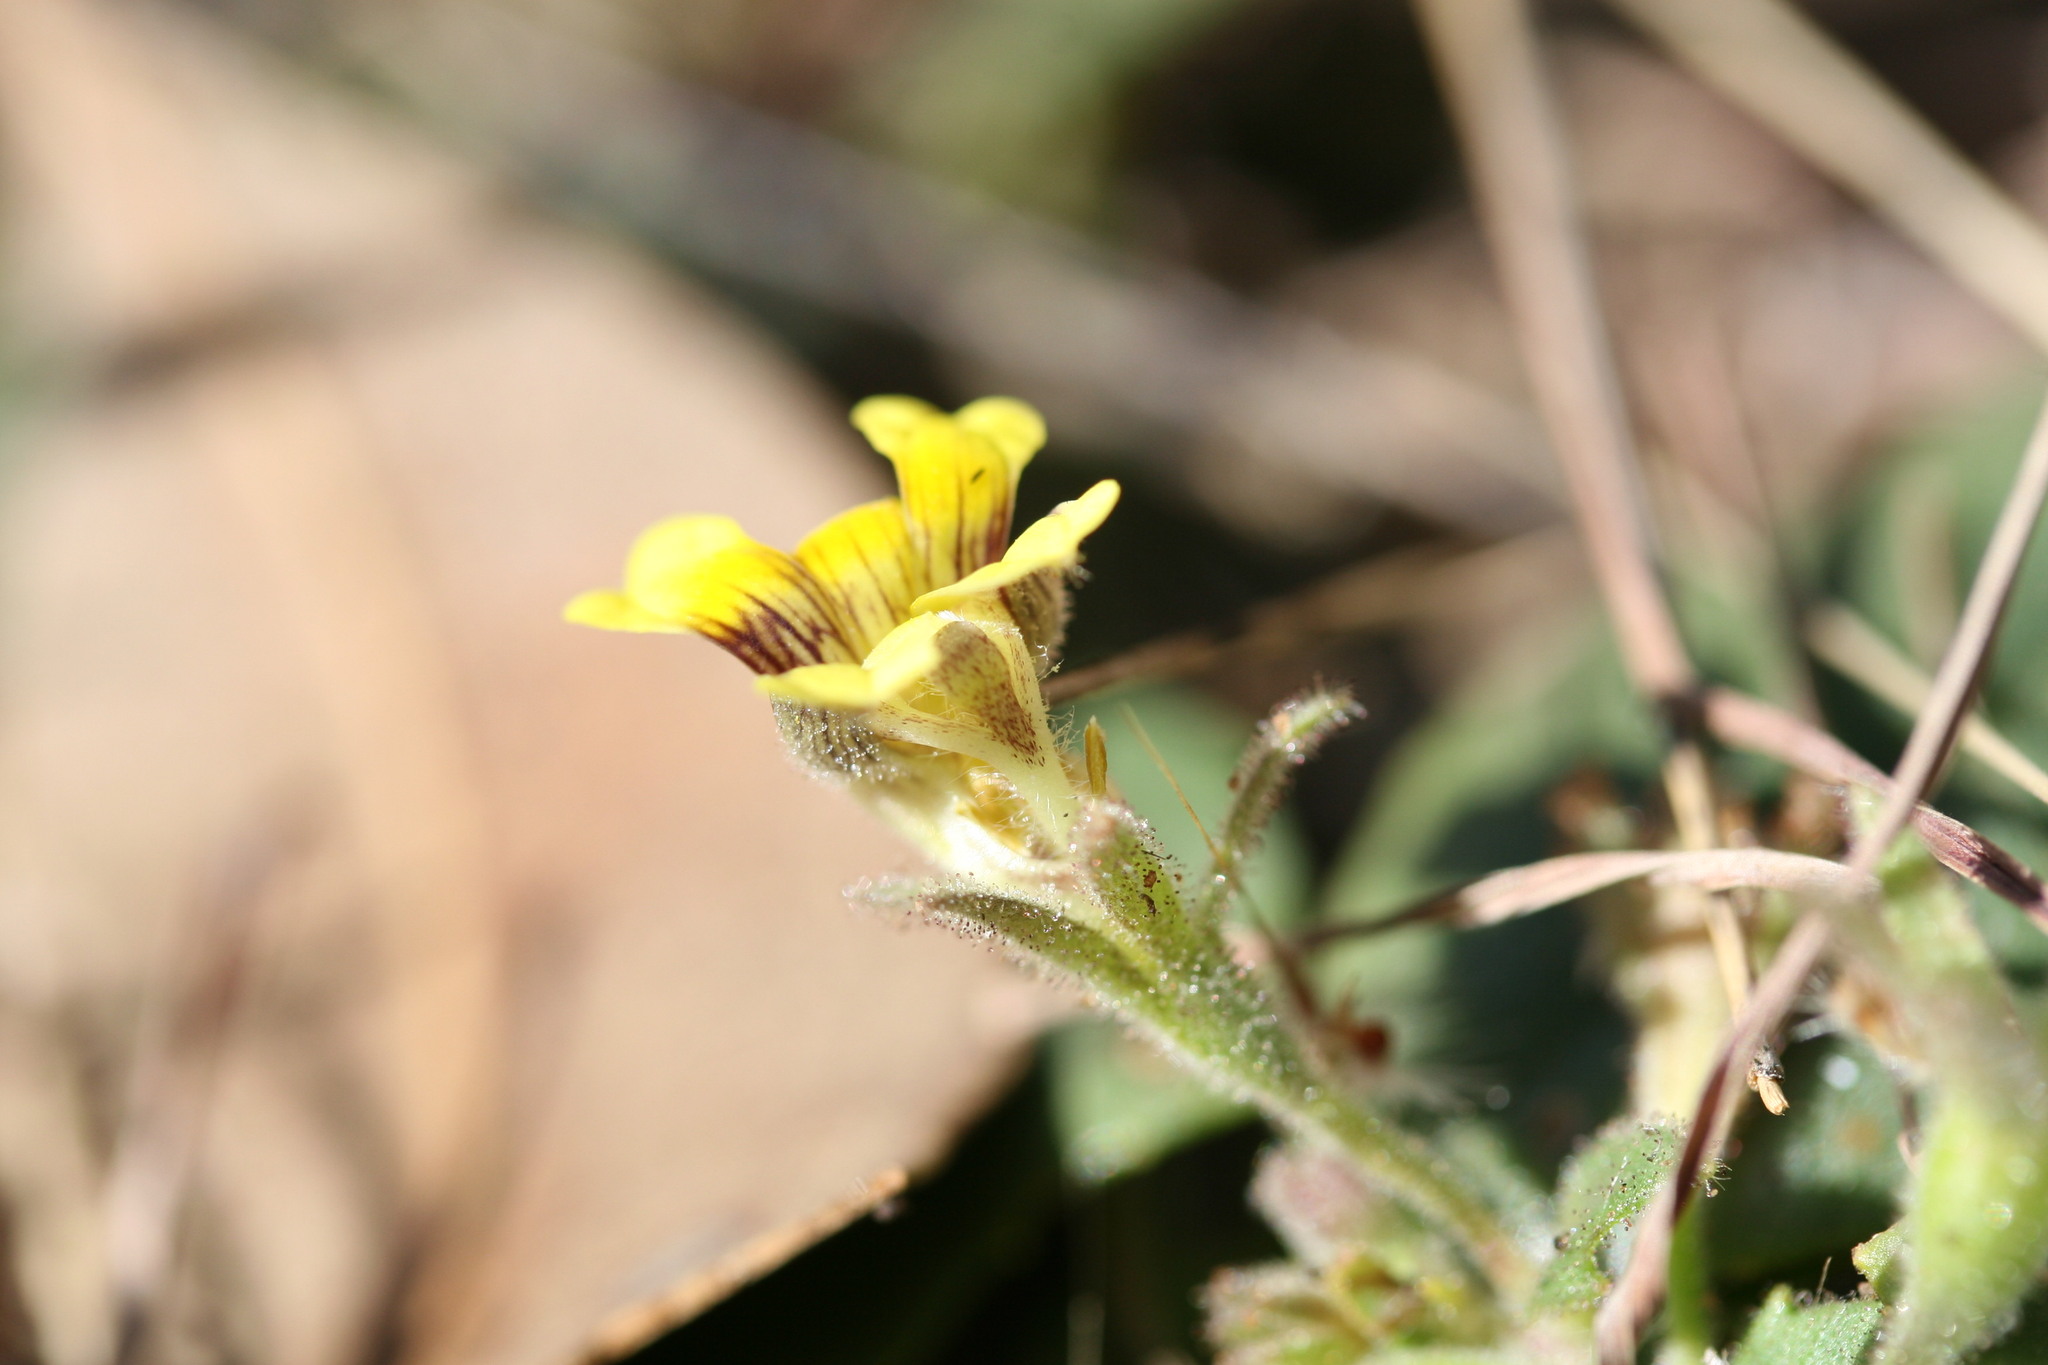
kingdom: Plantae
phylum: Tracheophyta
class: Magnoliopsida
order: Asterales
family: Goodeniaceae
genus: Goodenia
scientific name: Goodenia heppleana
